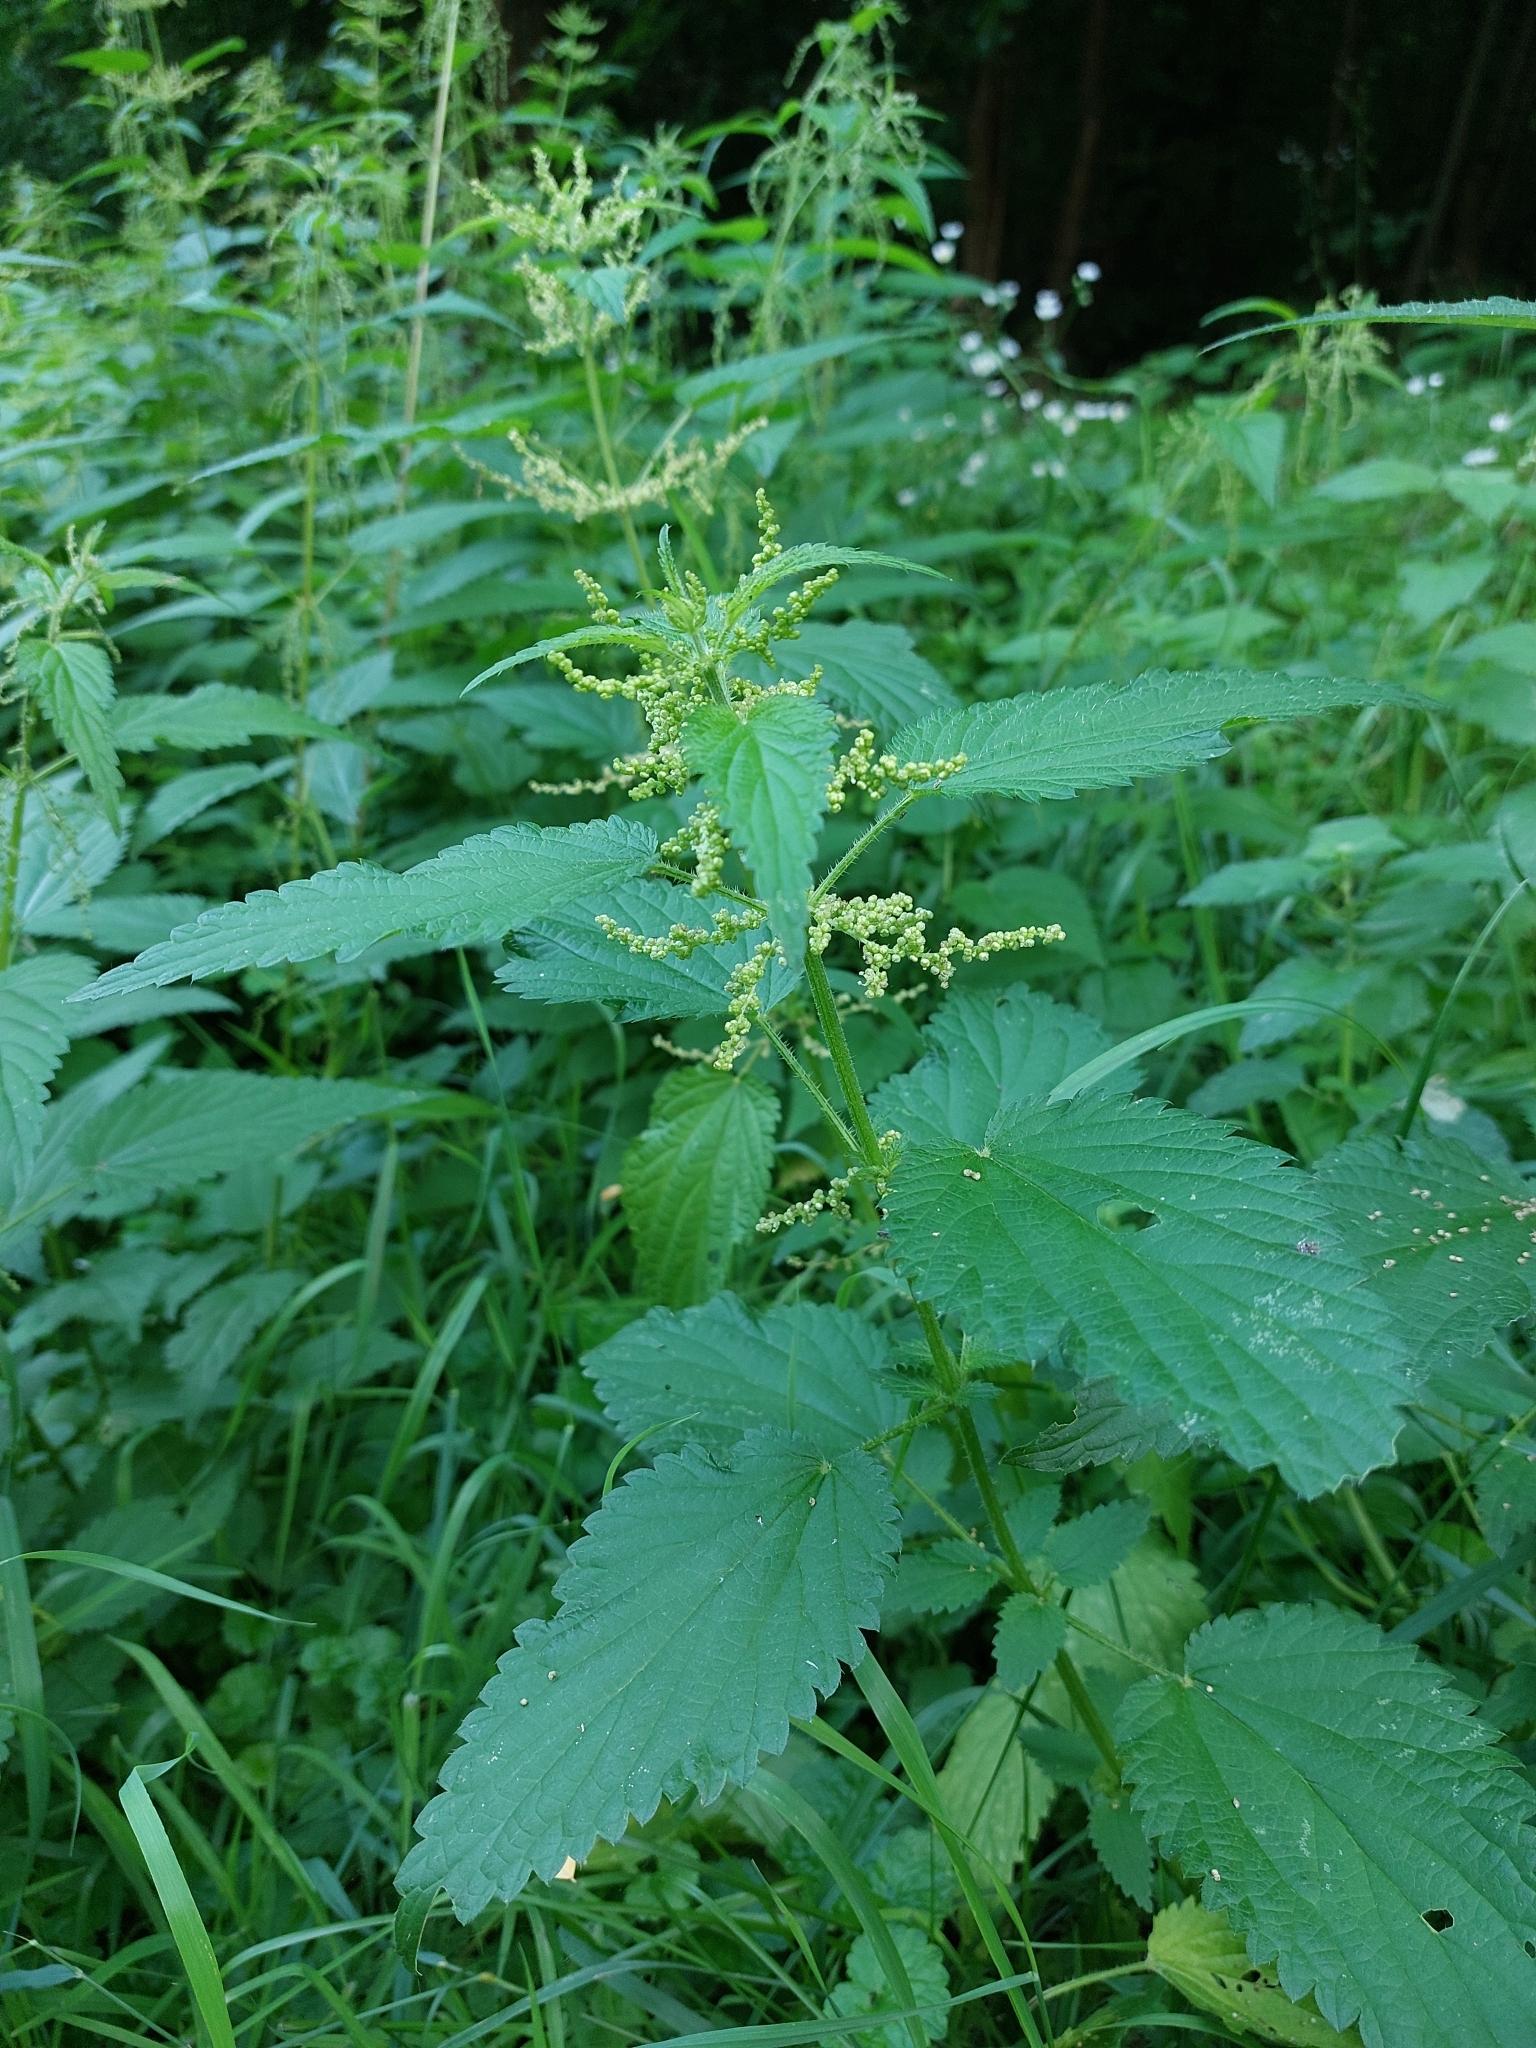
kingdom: Plantae
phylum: Tracheophyta
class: Magnoliopsida
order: Rosales
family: Urticaceae
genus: Urtica
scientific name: Urtica dioica
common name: Common nettle
